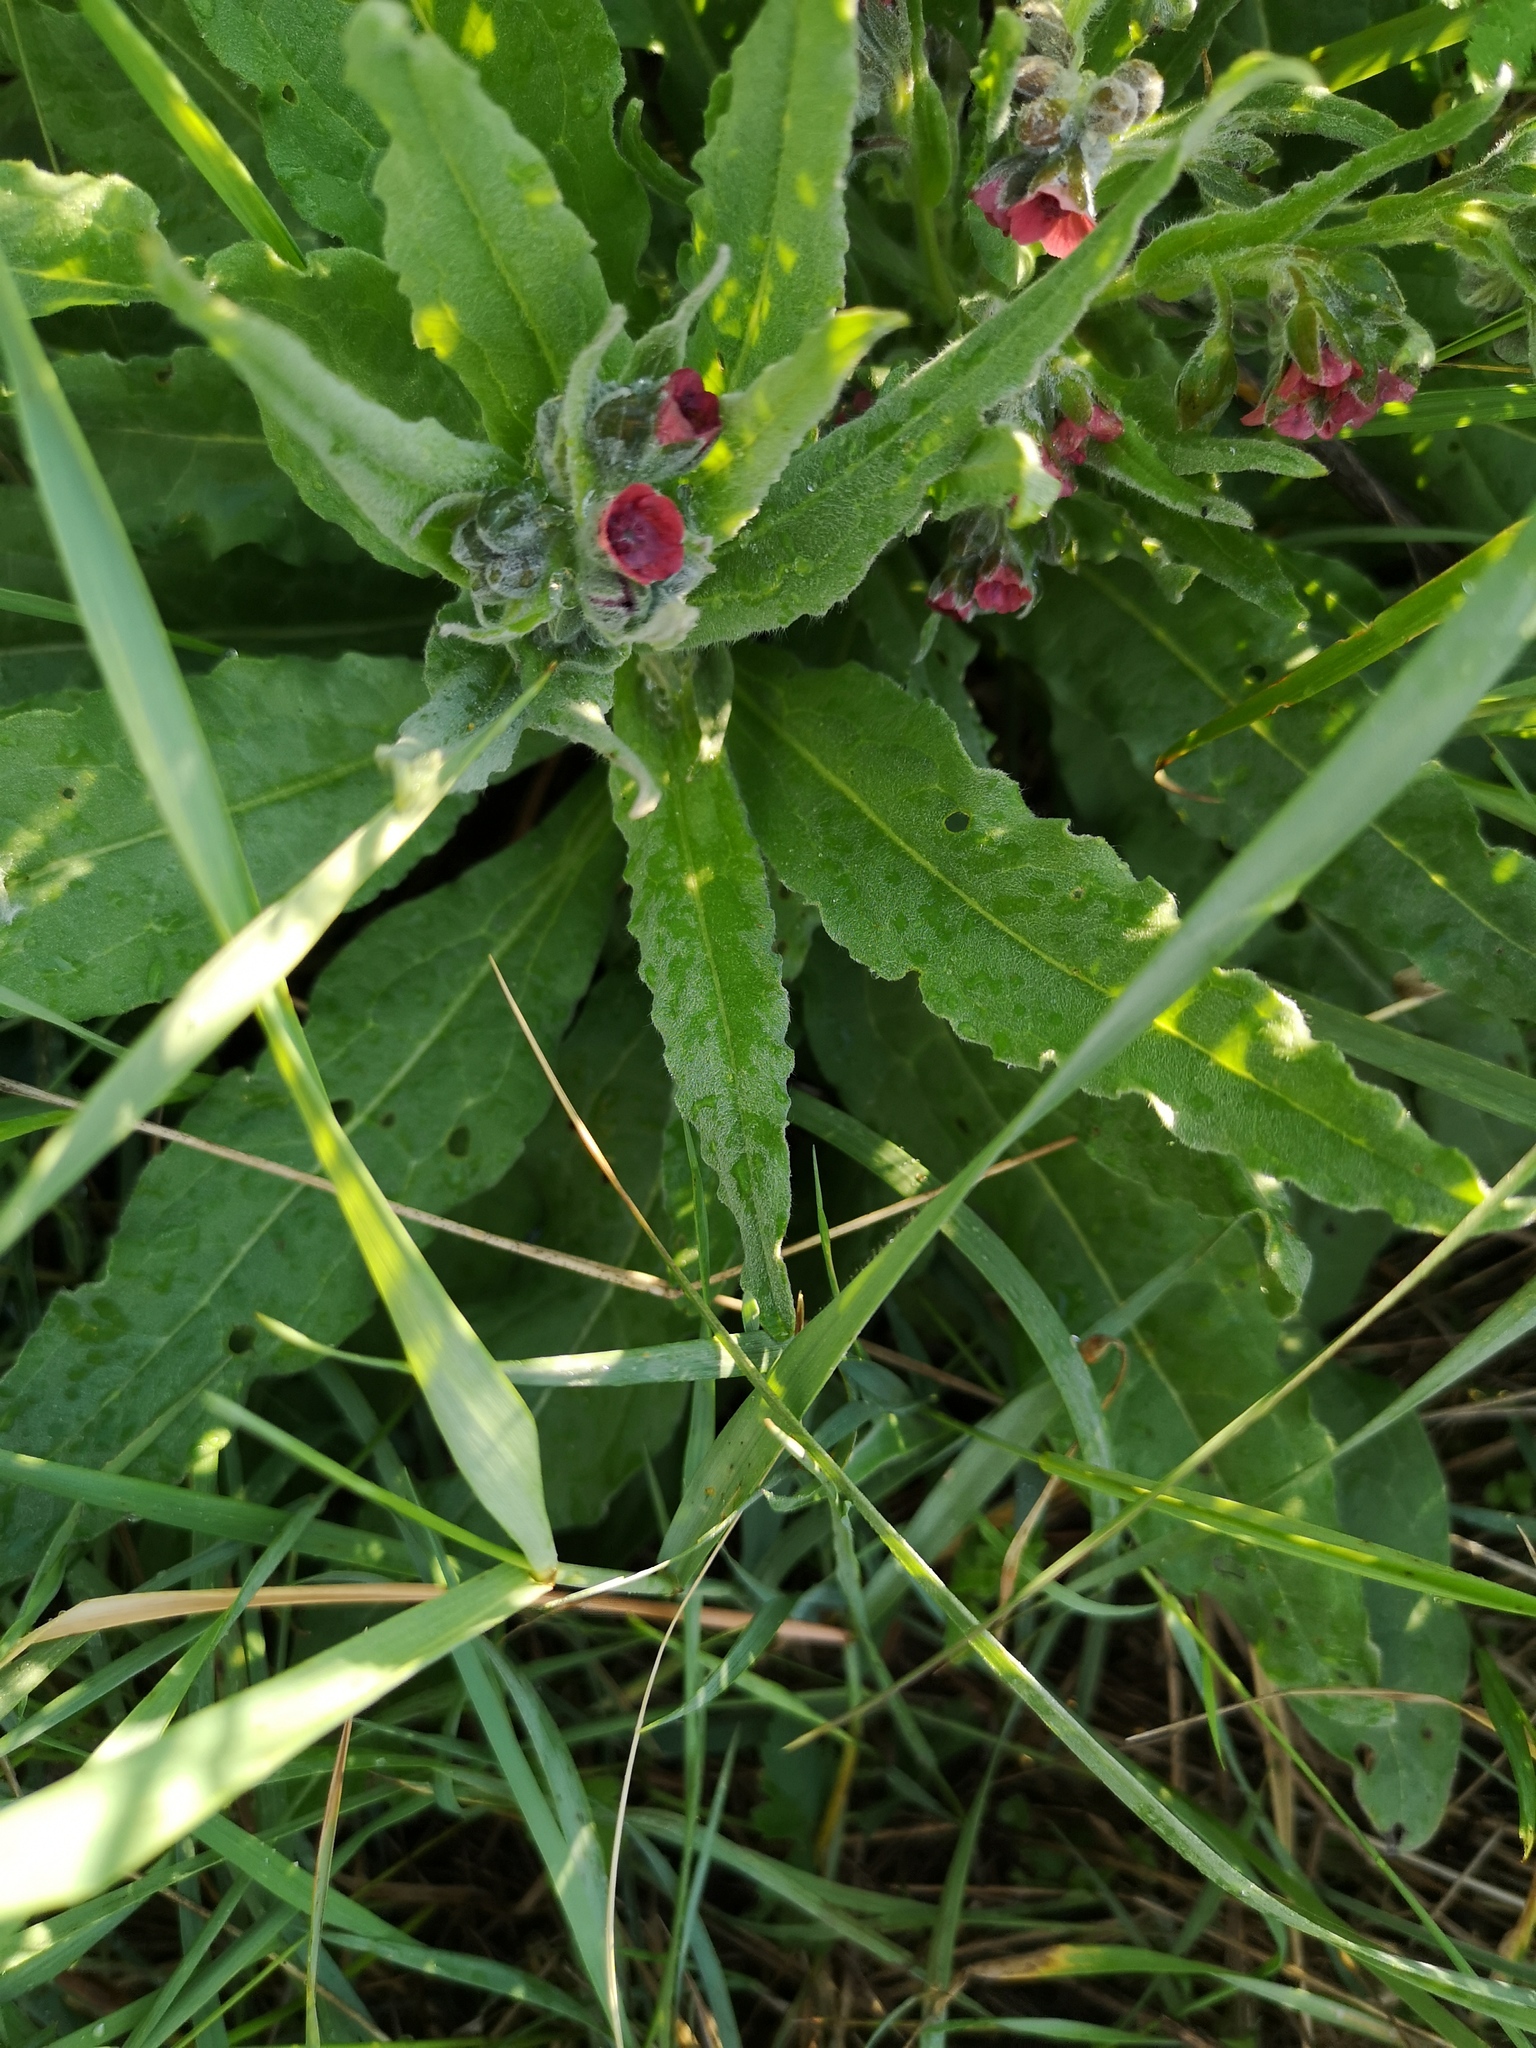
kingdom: Plantae
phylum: Tracheophyta
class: Magnoliopsida
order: Boraginales
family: Boraginaceae
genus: Cynoglossum
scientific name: Cynoglossum officinale
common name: Hound's-tongue
